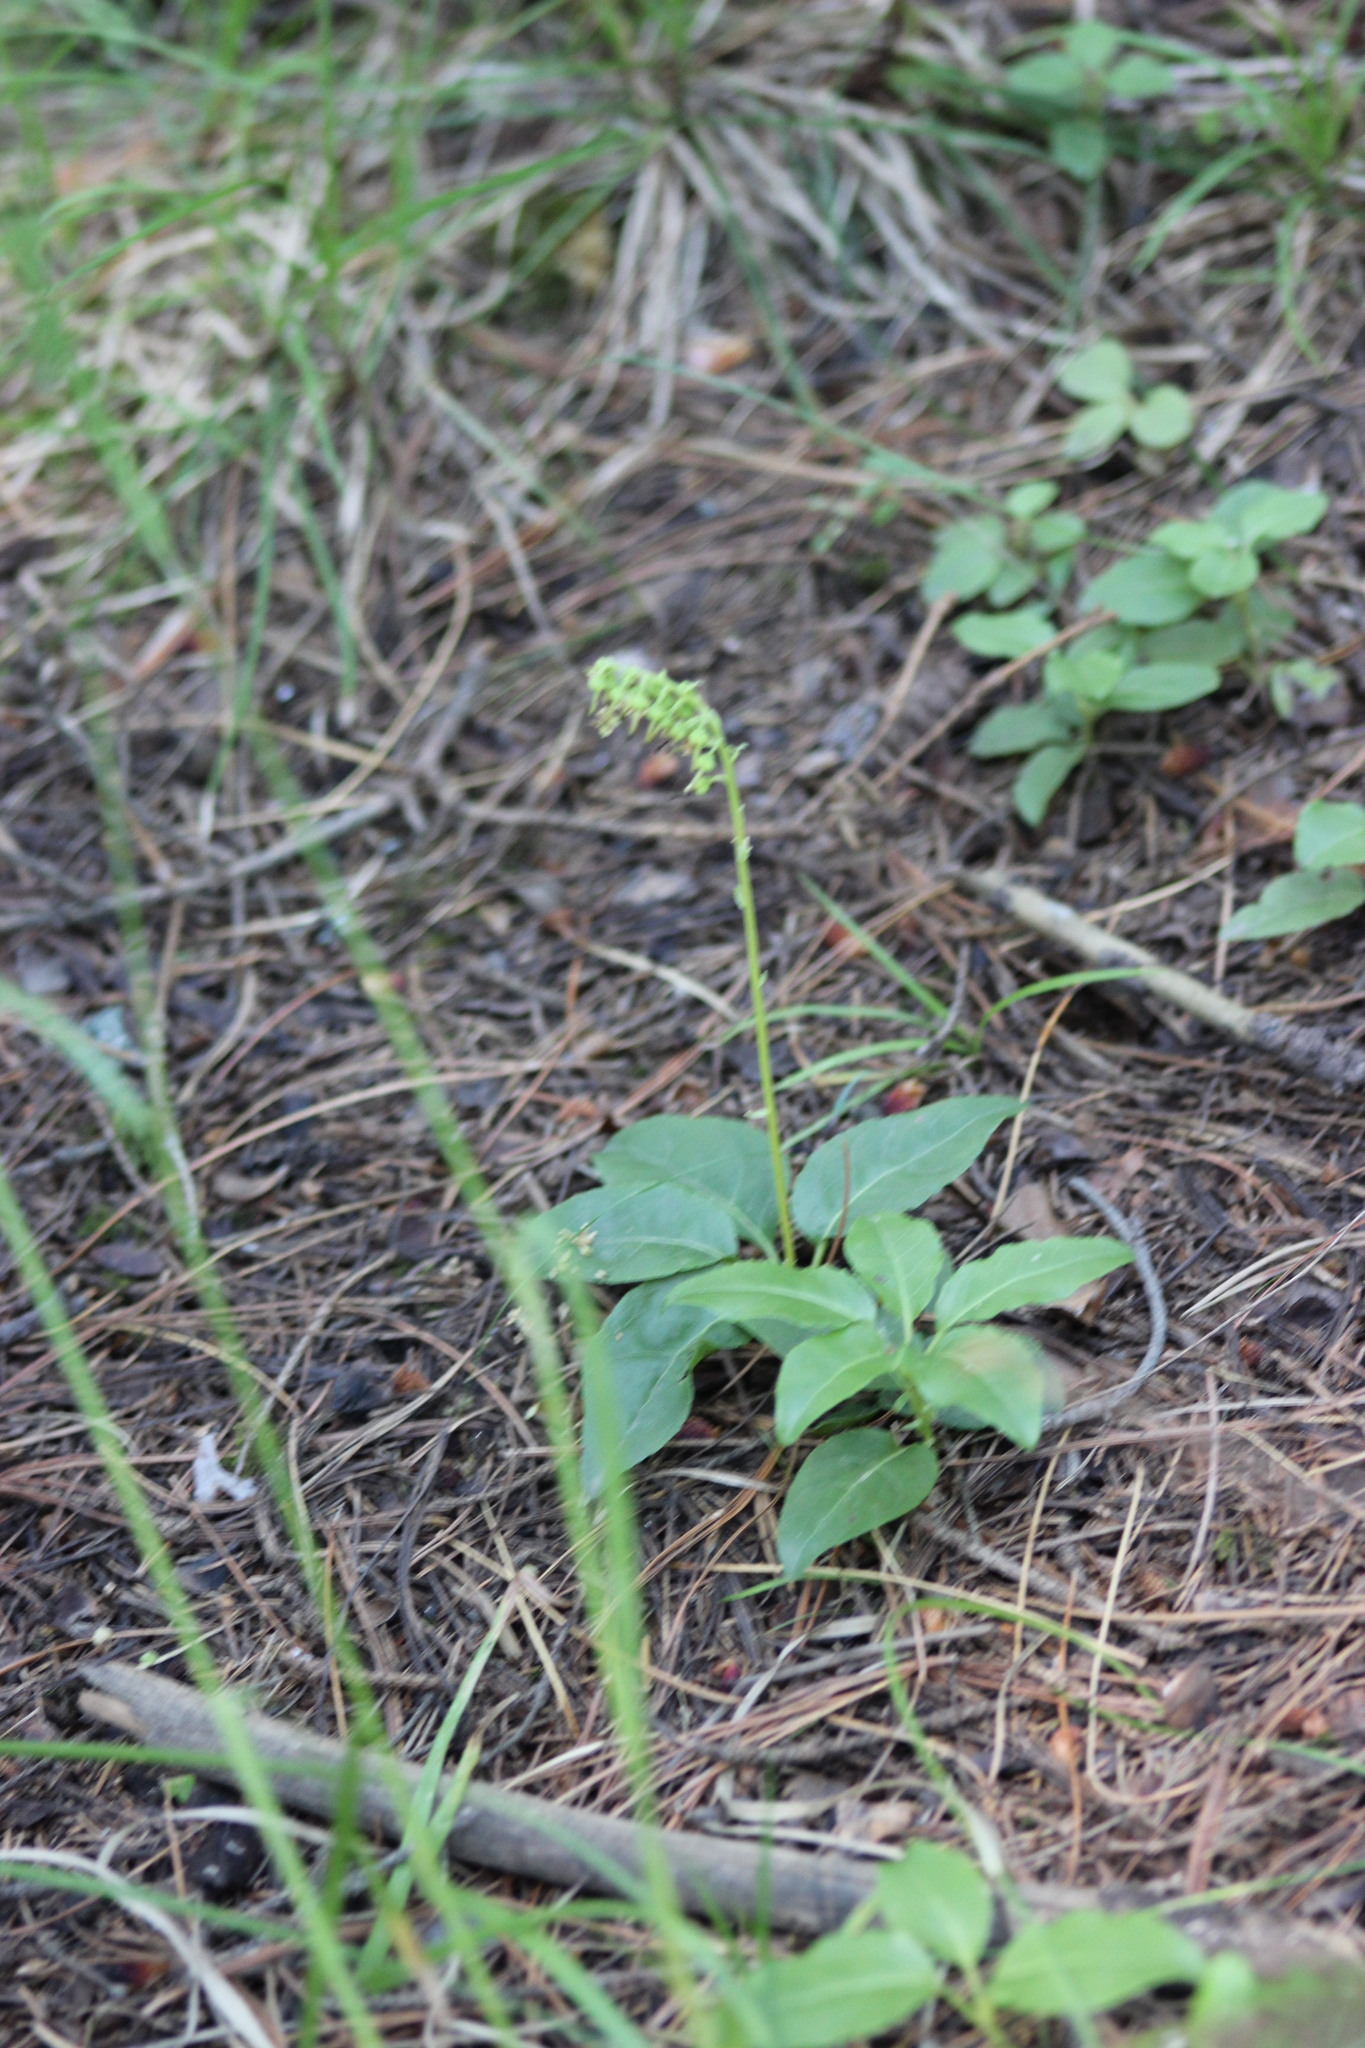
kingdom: Plantae
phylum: Tracheophyta
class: Magnoliopsida
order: Ericales
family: Ericaceae
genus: Orthilia
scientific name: Orthilia secunda
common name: One-sided orthilia
